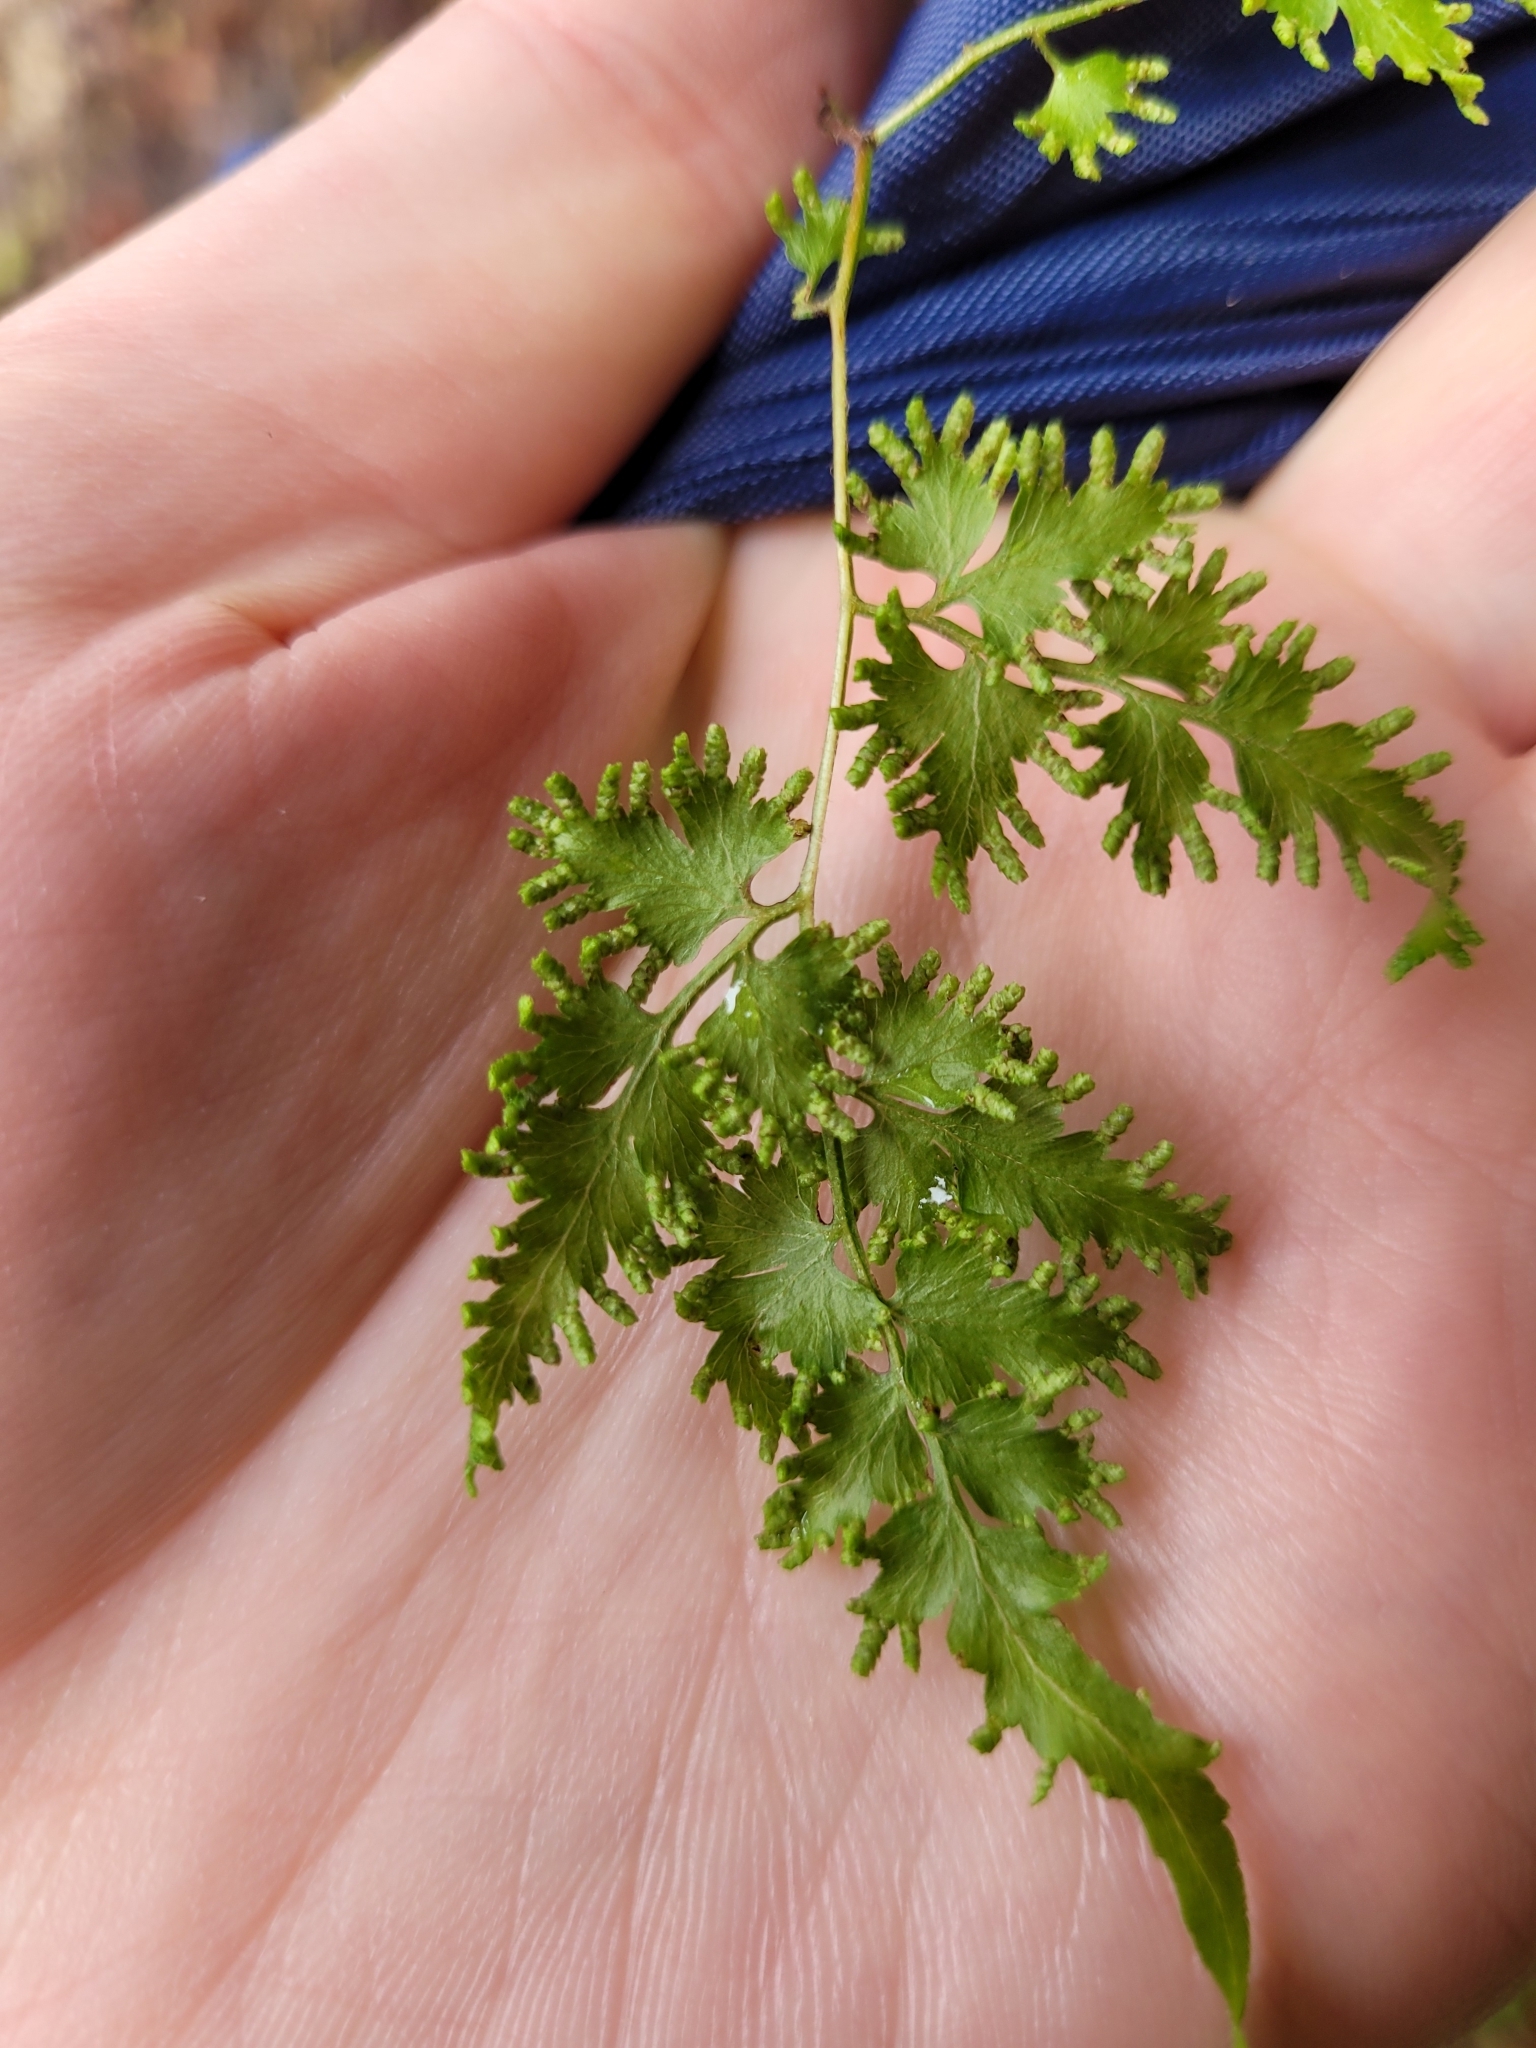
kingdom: Plantae
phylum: Tracheophyta
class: Polypodiopsida
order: Schizaeales
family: Lygodiaceae
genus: Lygodium
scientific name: Lygodium japonicum
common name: Japanese climbing fern
